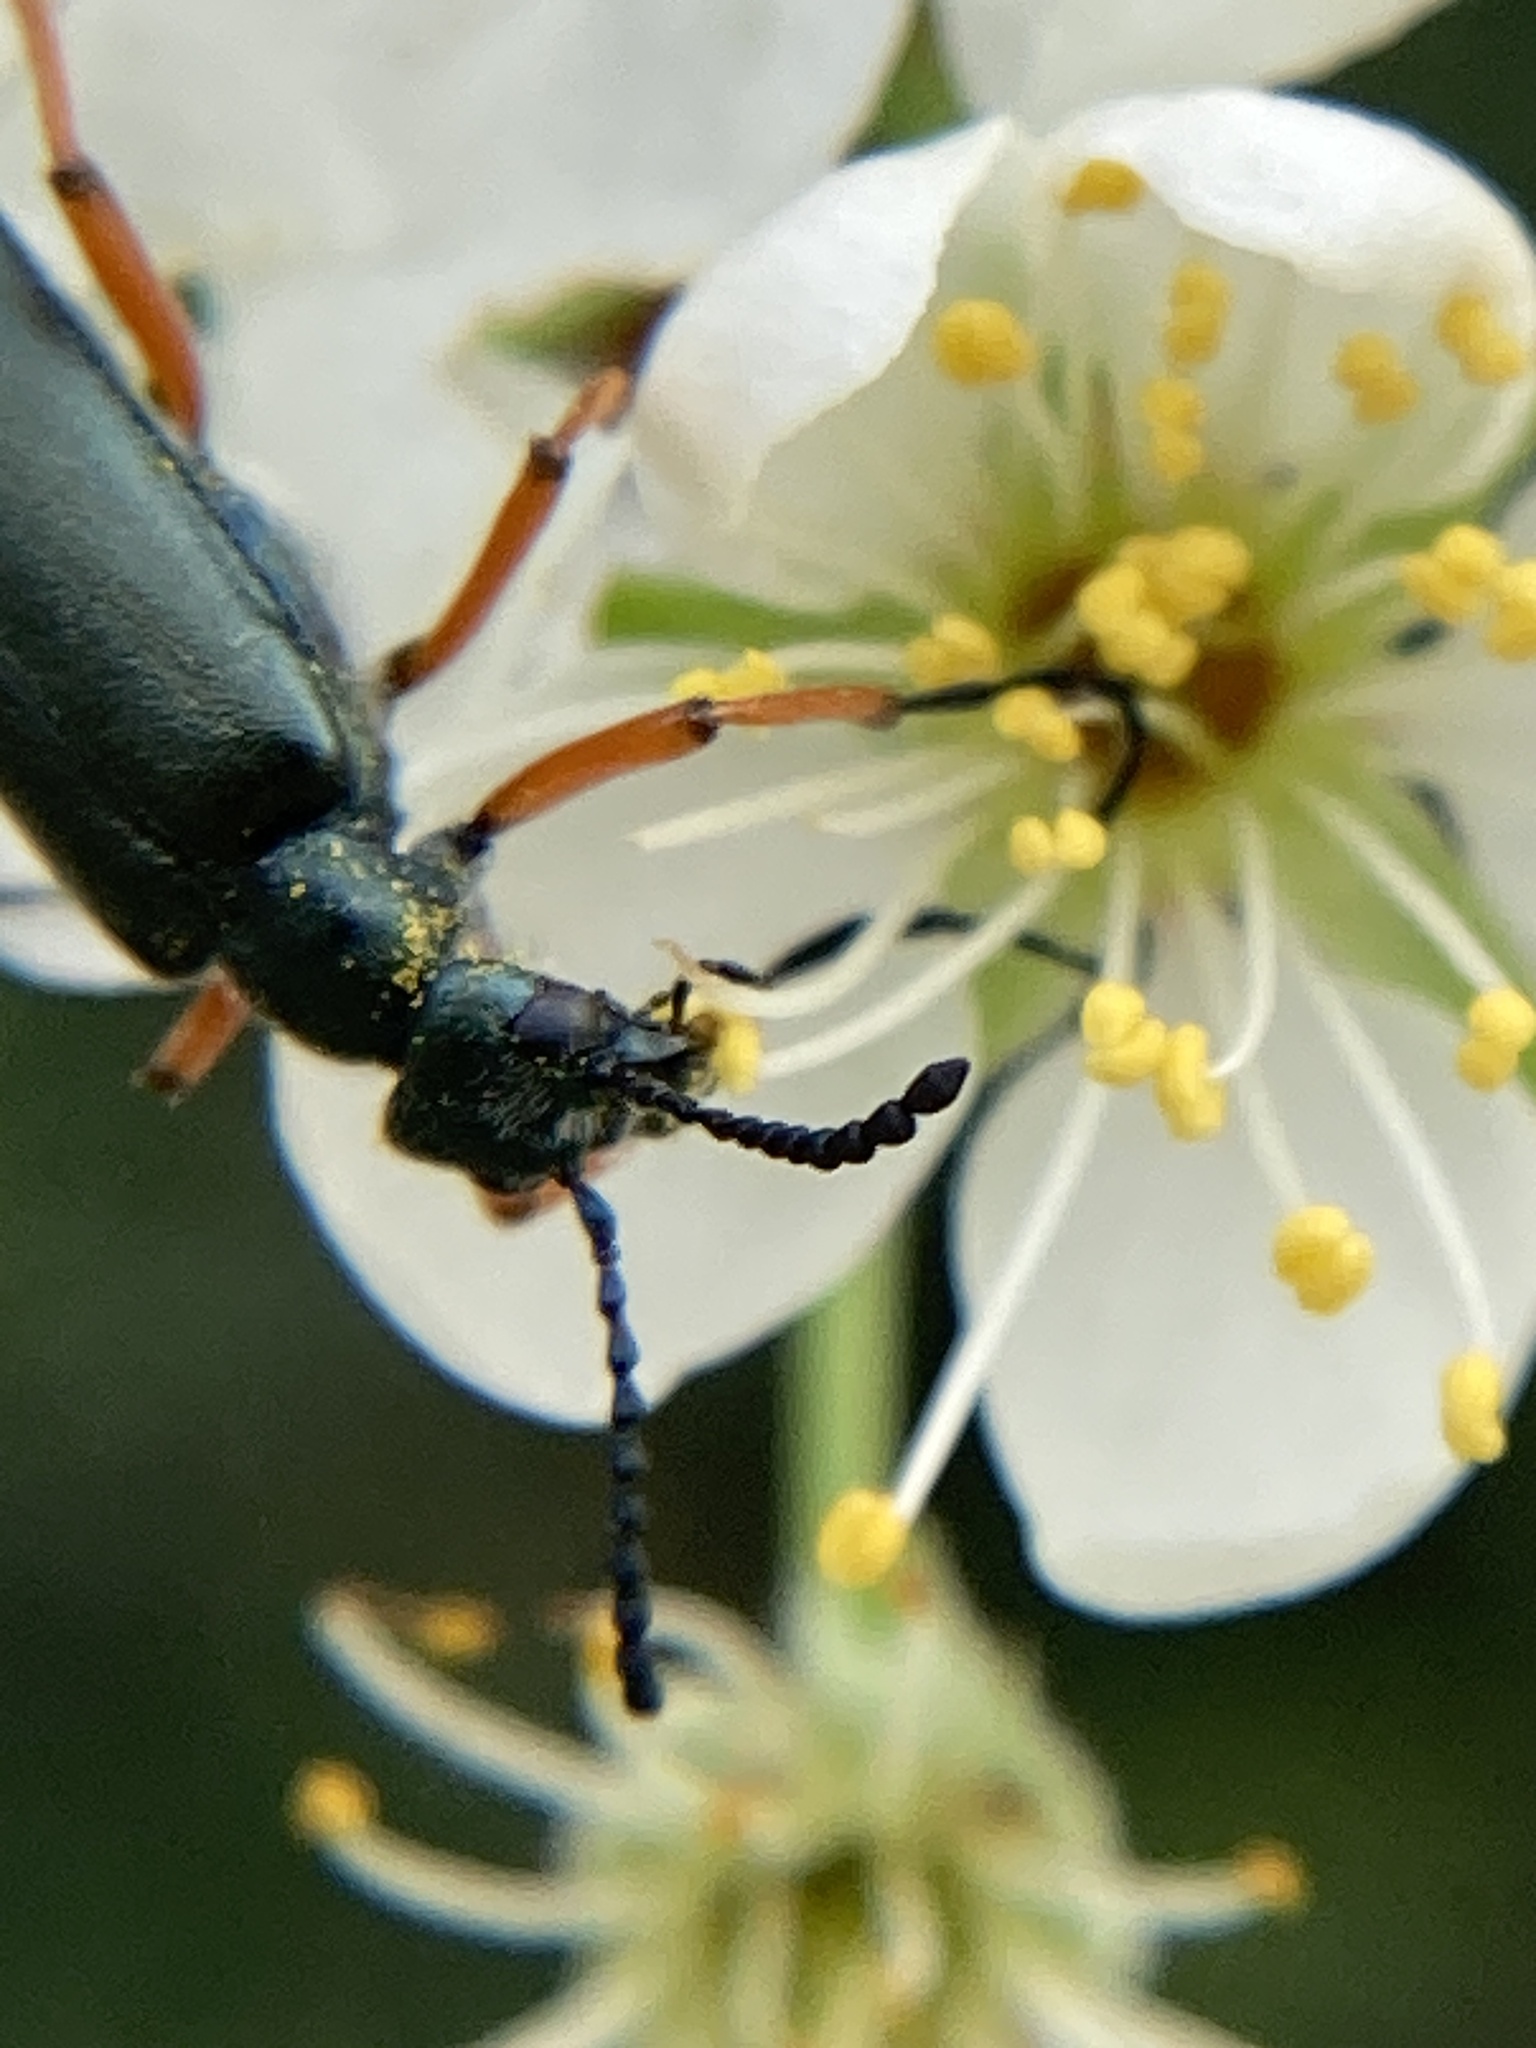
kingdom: Animalia
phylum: Arthropoda
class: Insecta
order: Coleoptera
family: Meloidae
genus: Lytta
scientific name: Lytta aenea
